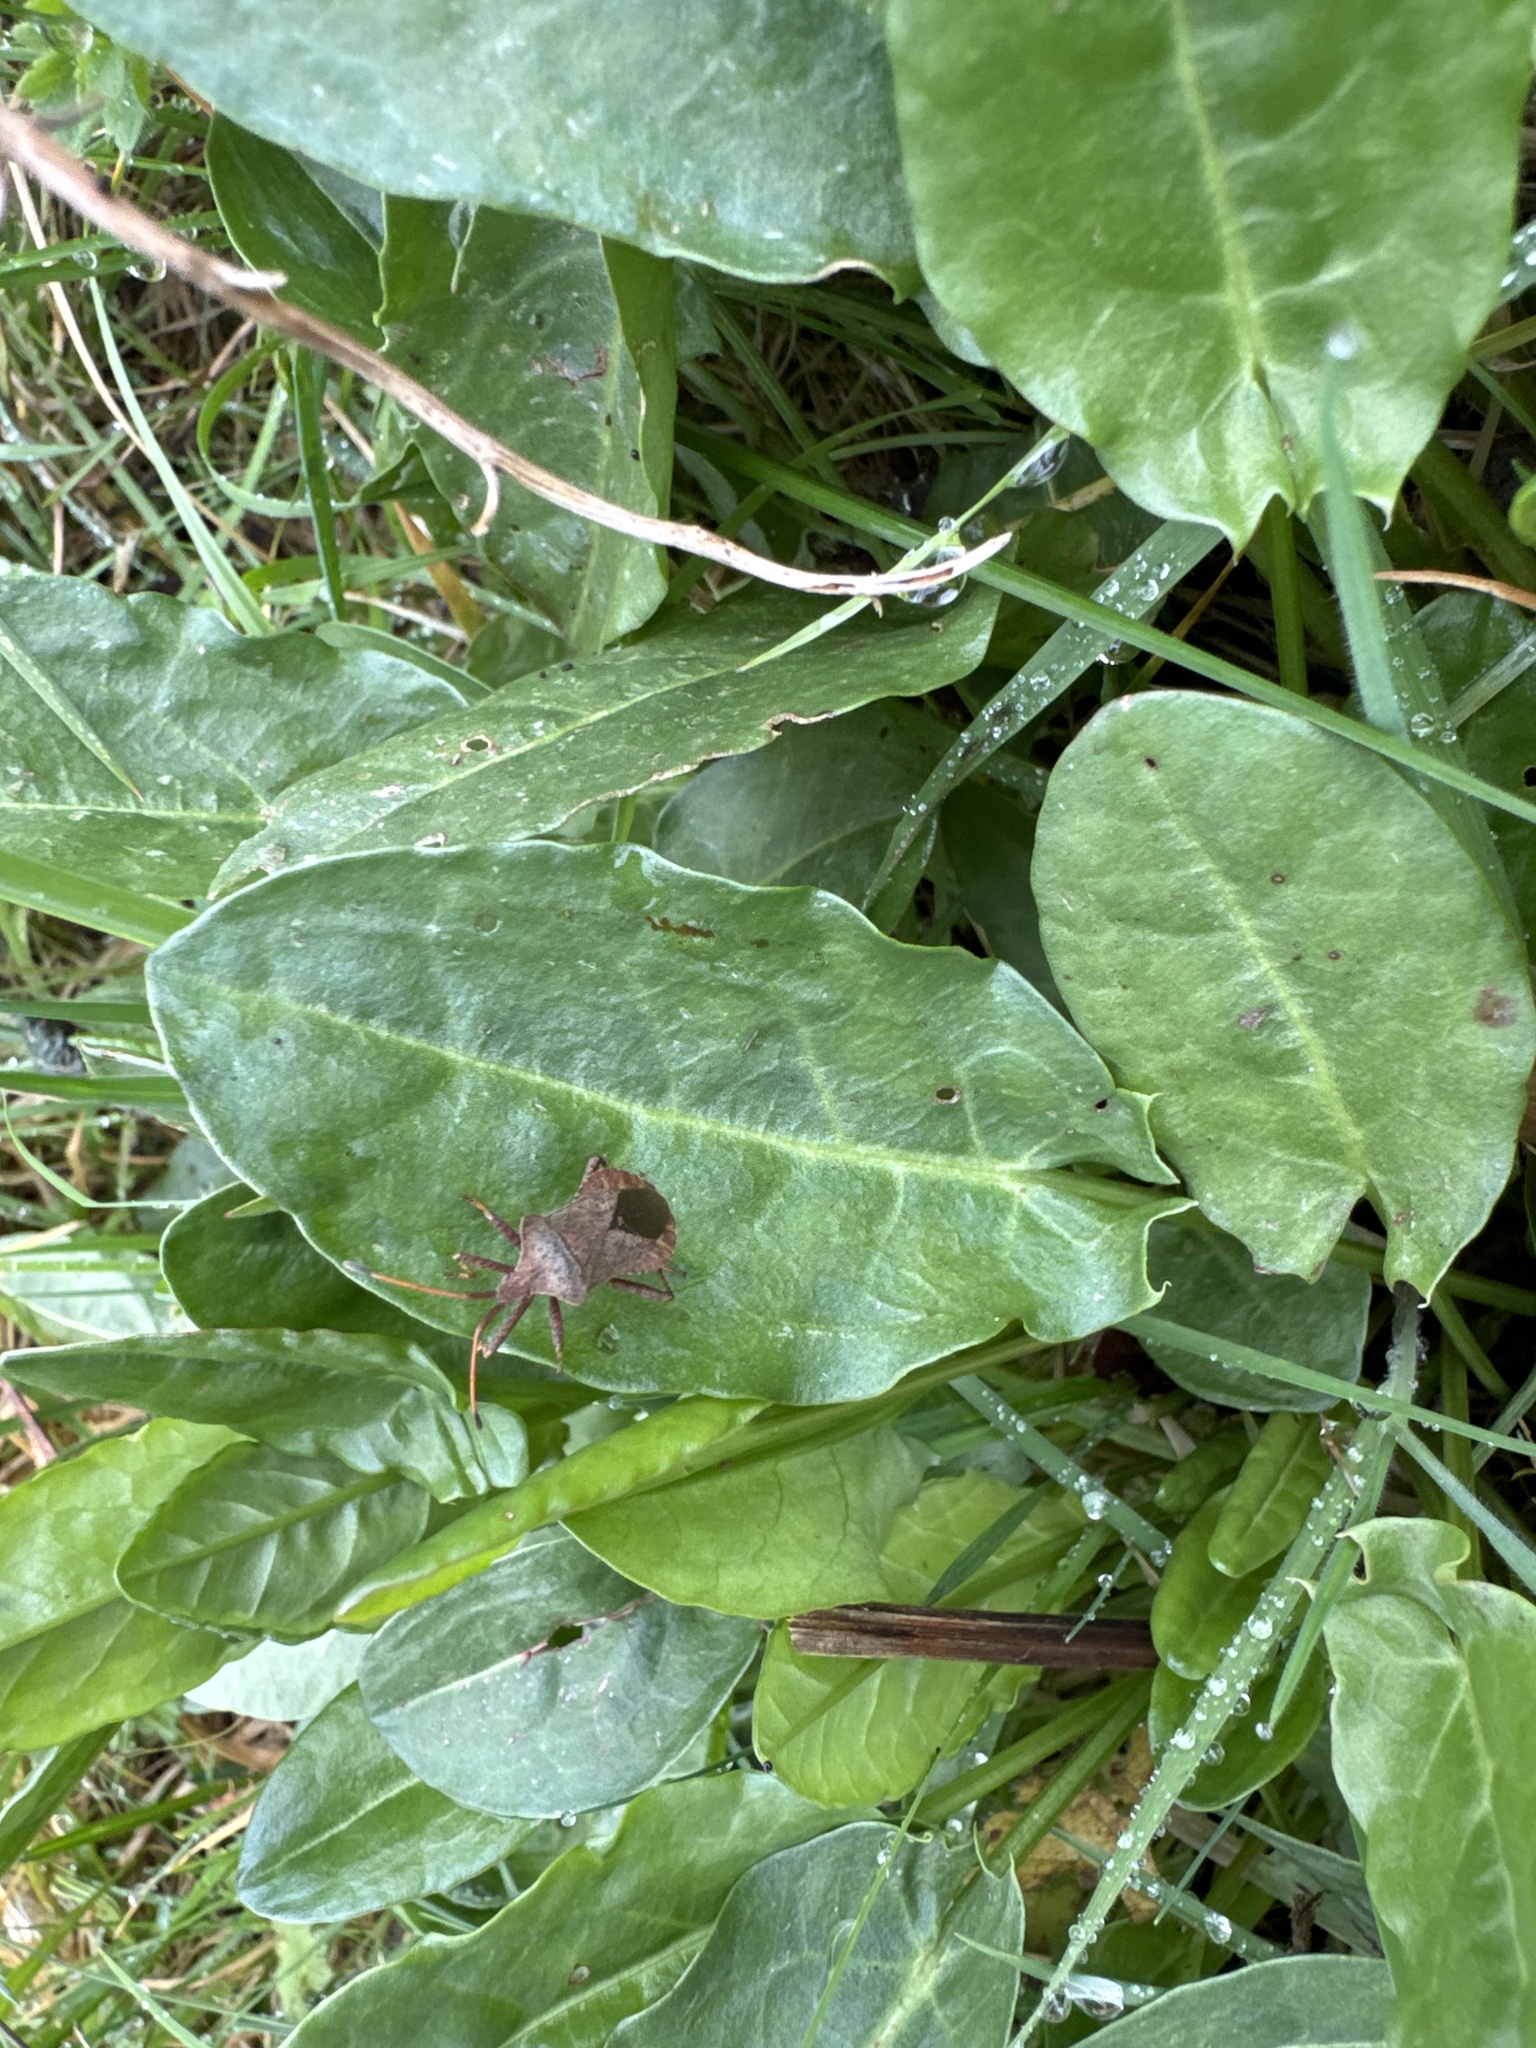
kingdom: Animalia
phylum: Arthropoda
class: Insecta
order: Hemiptera
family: Coreidae
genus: Coreus
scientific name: Coreus marginatus
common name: Dock bug
